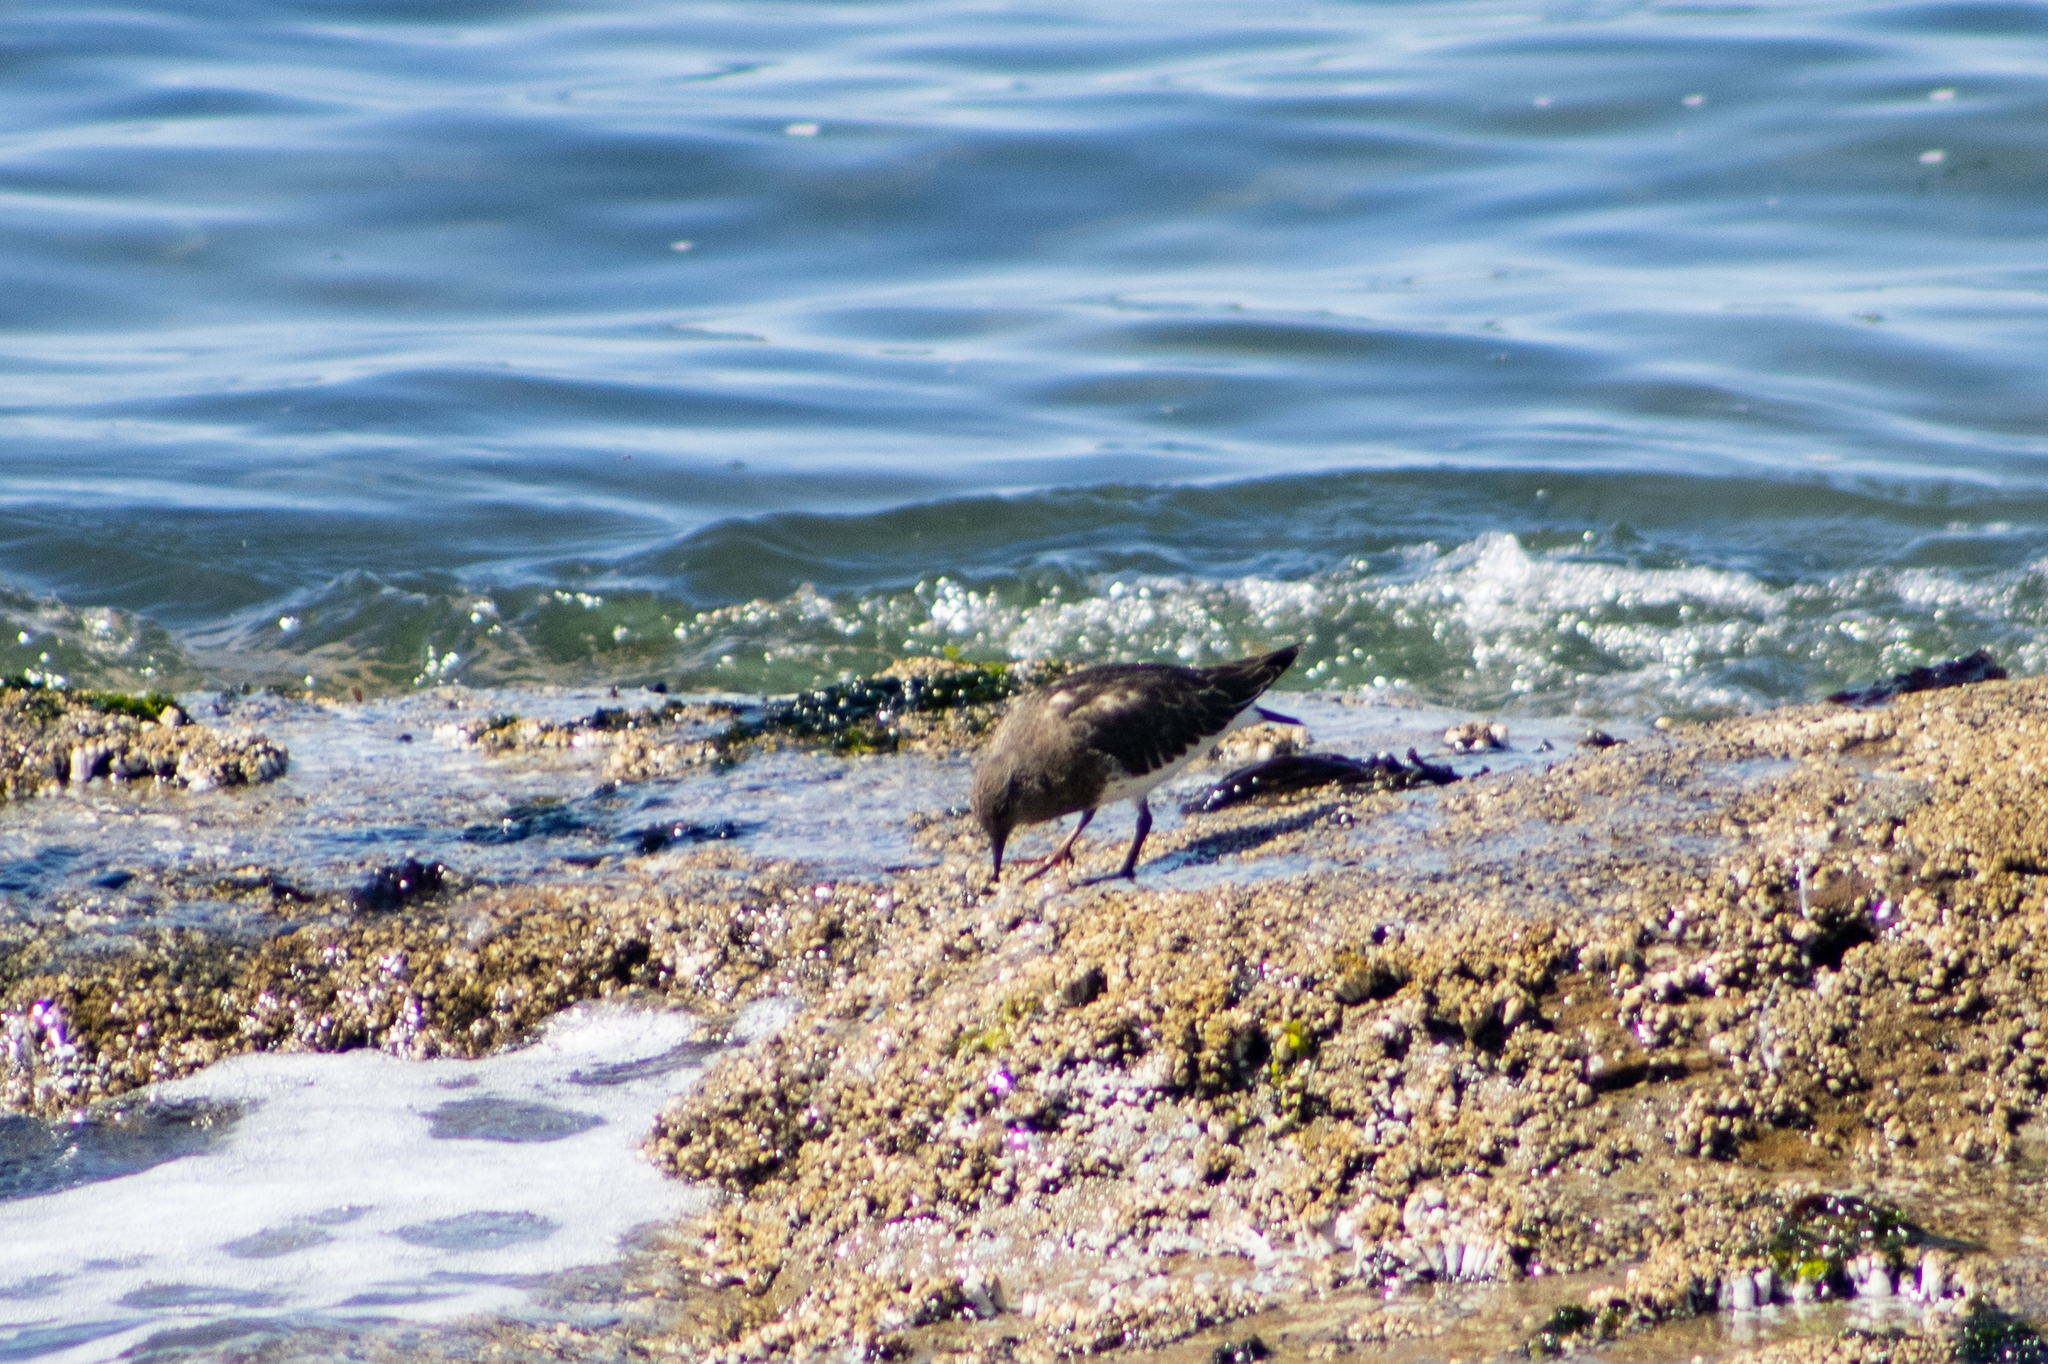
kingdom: Animalia
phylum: Chordata
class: Aves
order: Charadriiformes
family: Scolopacidae
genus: Arenaria
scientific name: Arenaria interpres
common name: Ruddy turnstone
